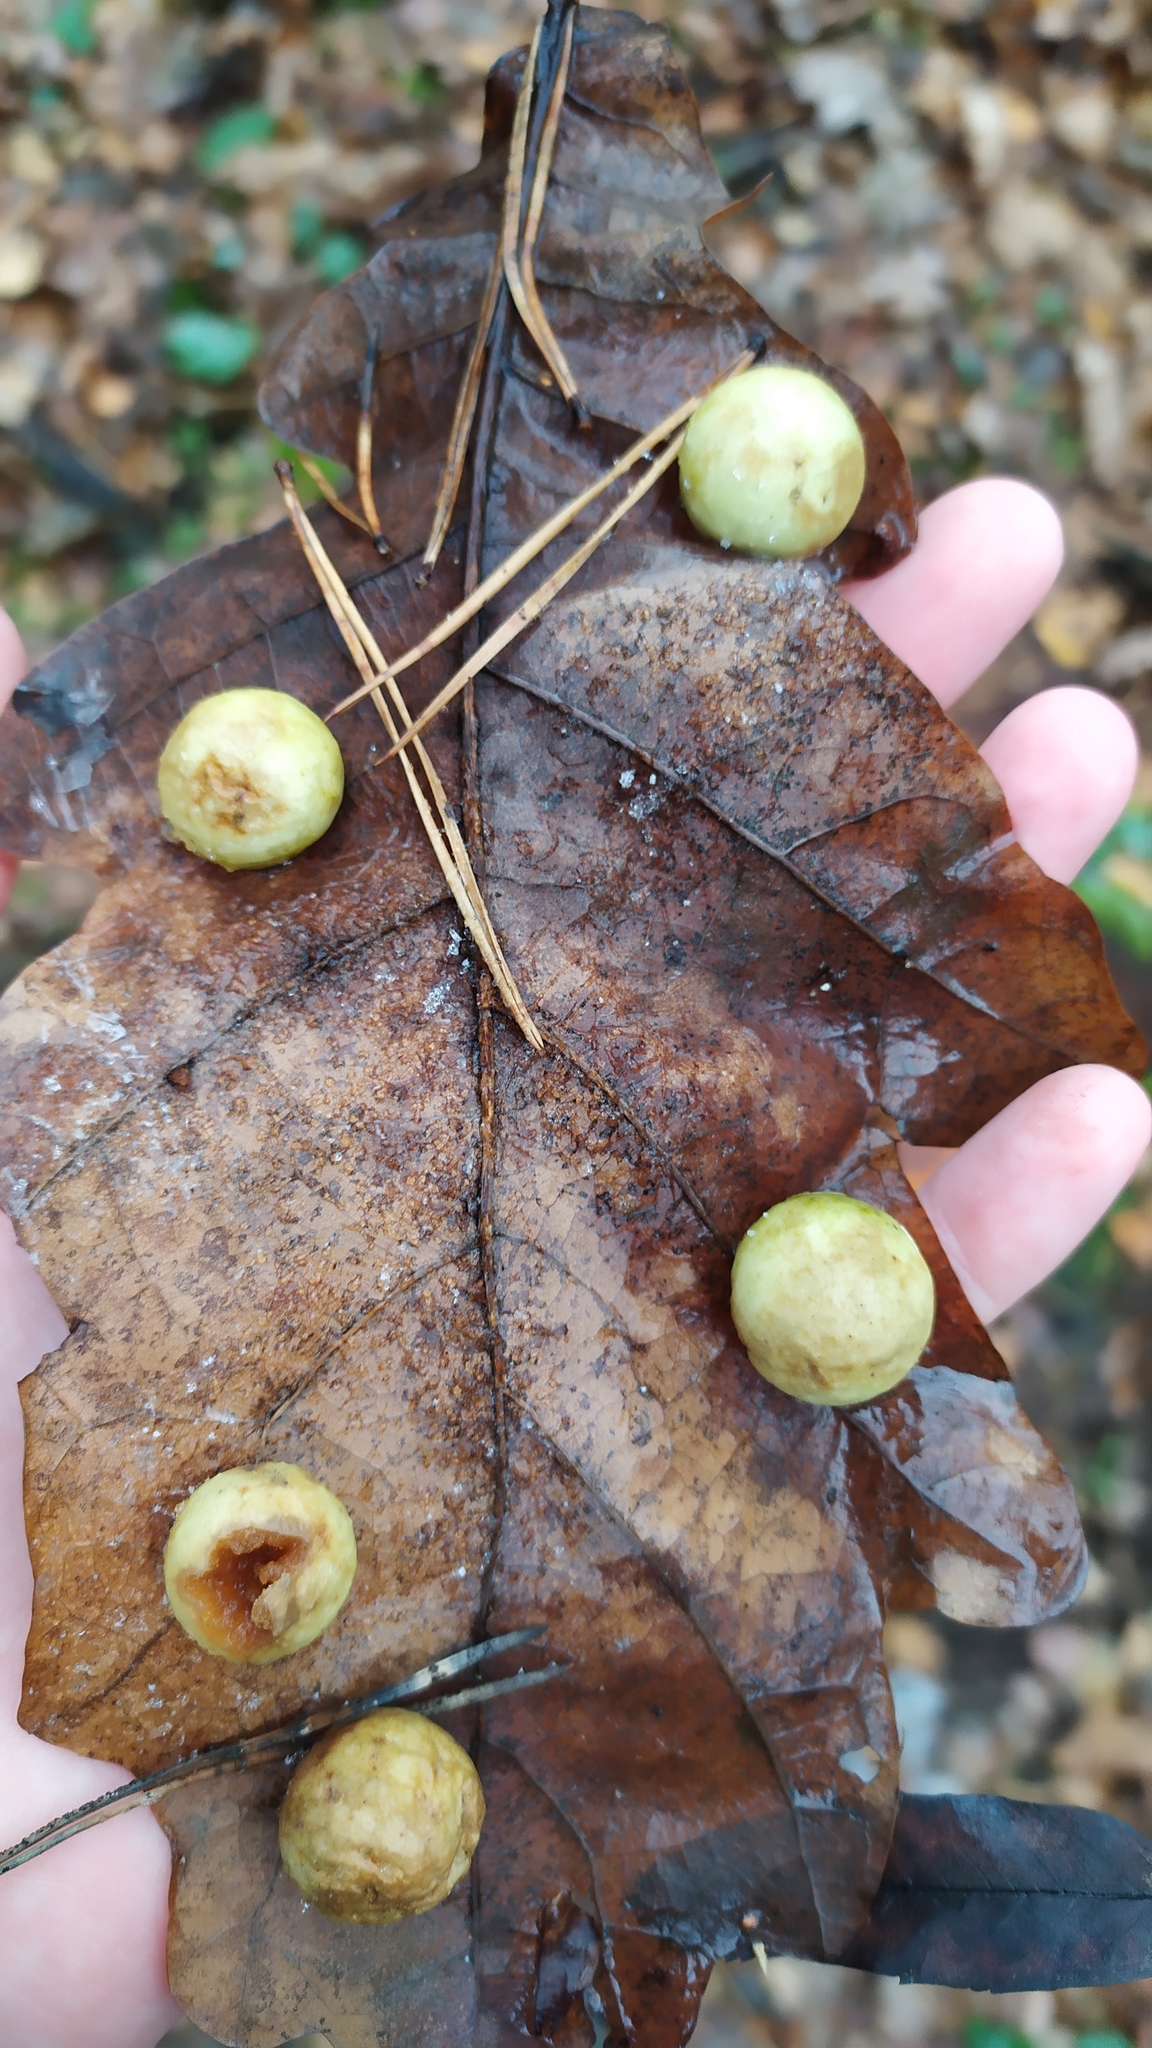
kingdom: Animalia
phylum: Arthropoda
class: Insecta
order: Hymenoptera
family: Cynipidae
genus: Cynips
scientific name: Cynips quercusfolii
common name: Cherry gall
